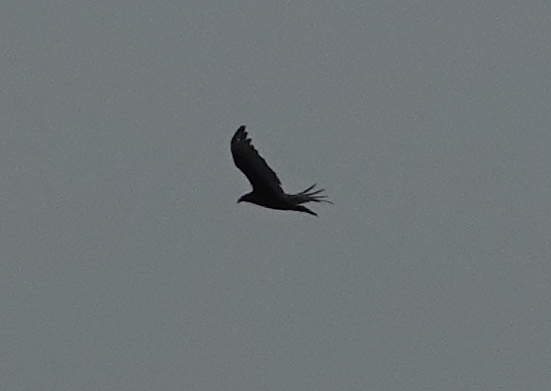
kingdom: Animalia
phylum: Chordata
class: Aves
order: Accipitriformes
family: Cathartidae
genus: Cathartes
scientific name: Cathartes aura
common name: Turkey vulture
